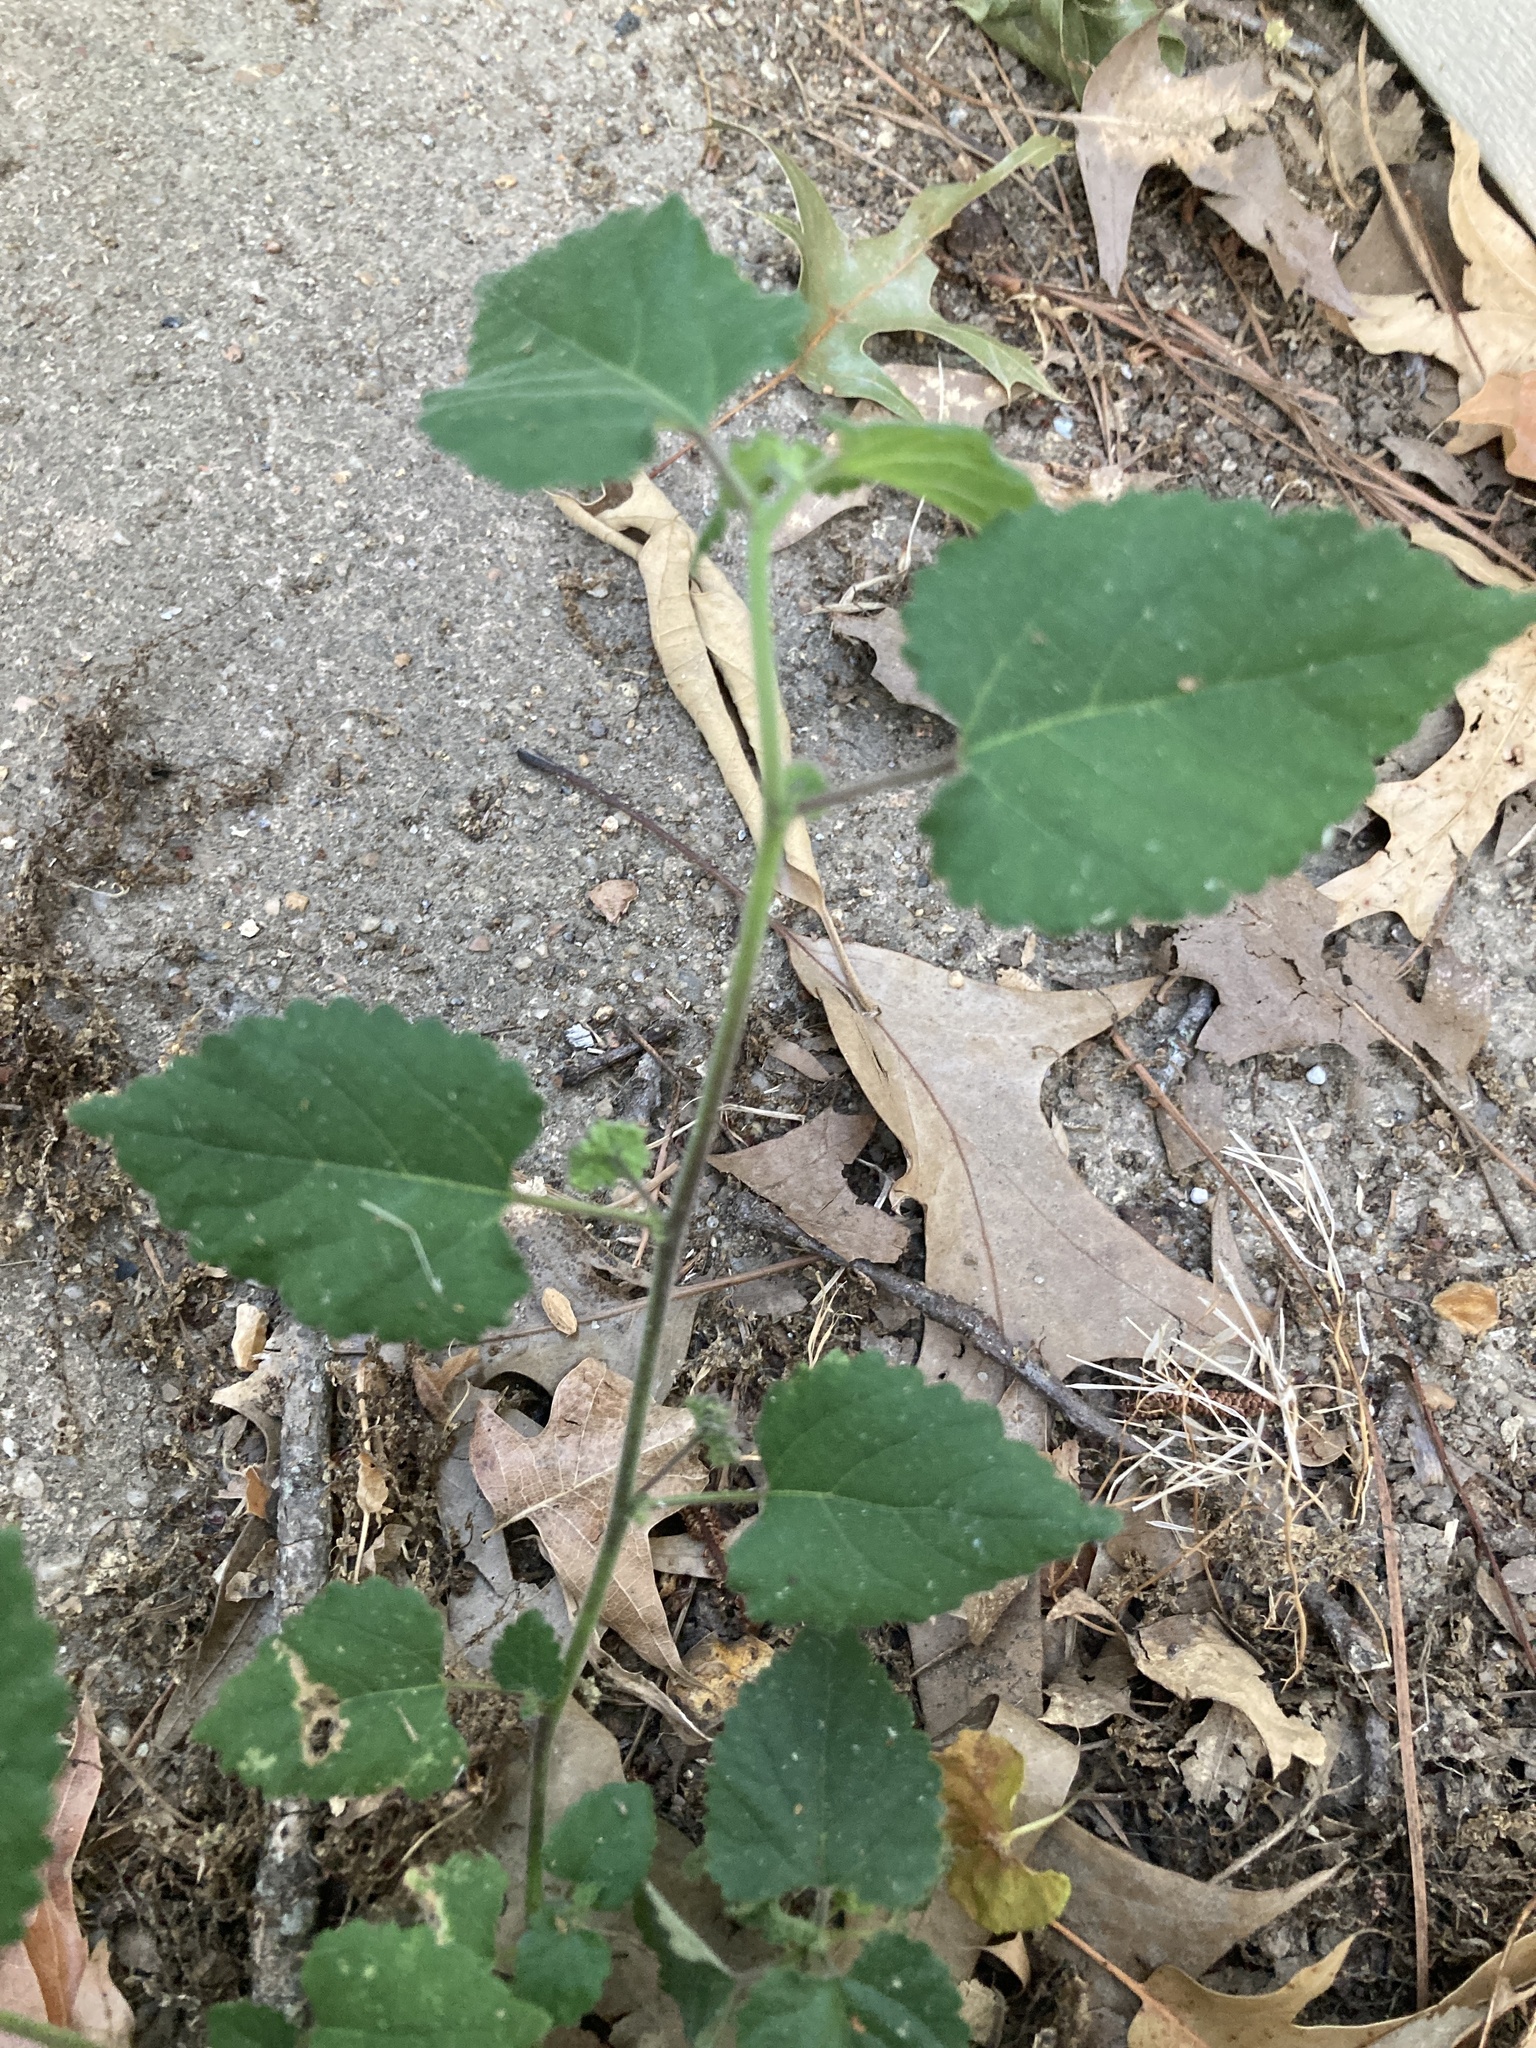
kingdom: Plantae
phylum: Tracheophyta
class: Magnoliopsida
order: Rosales
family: Moraceae
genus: Fatoua
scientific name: Fatoua villosa
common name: Hairy crabweed
